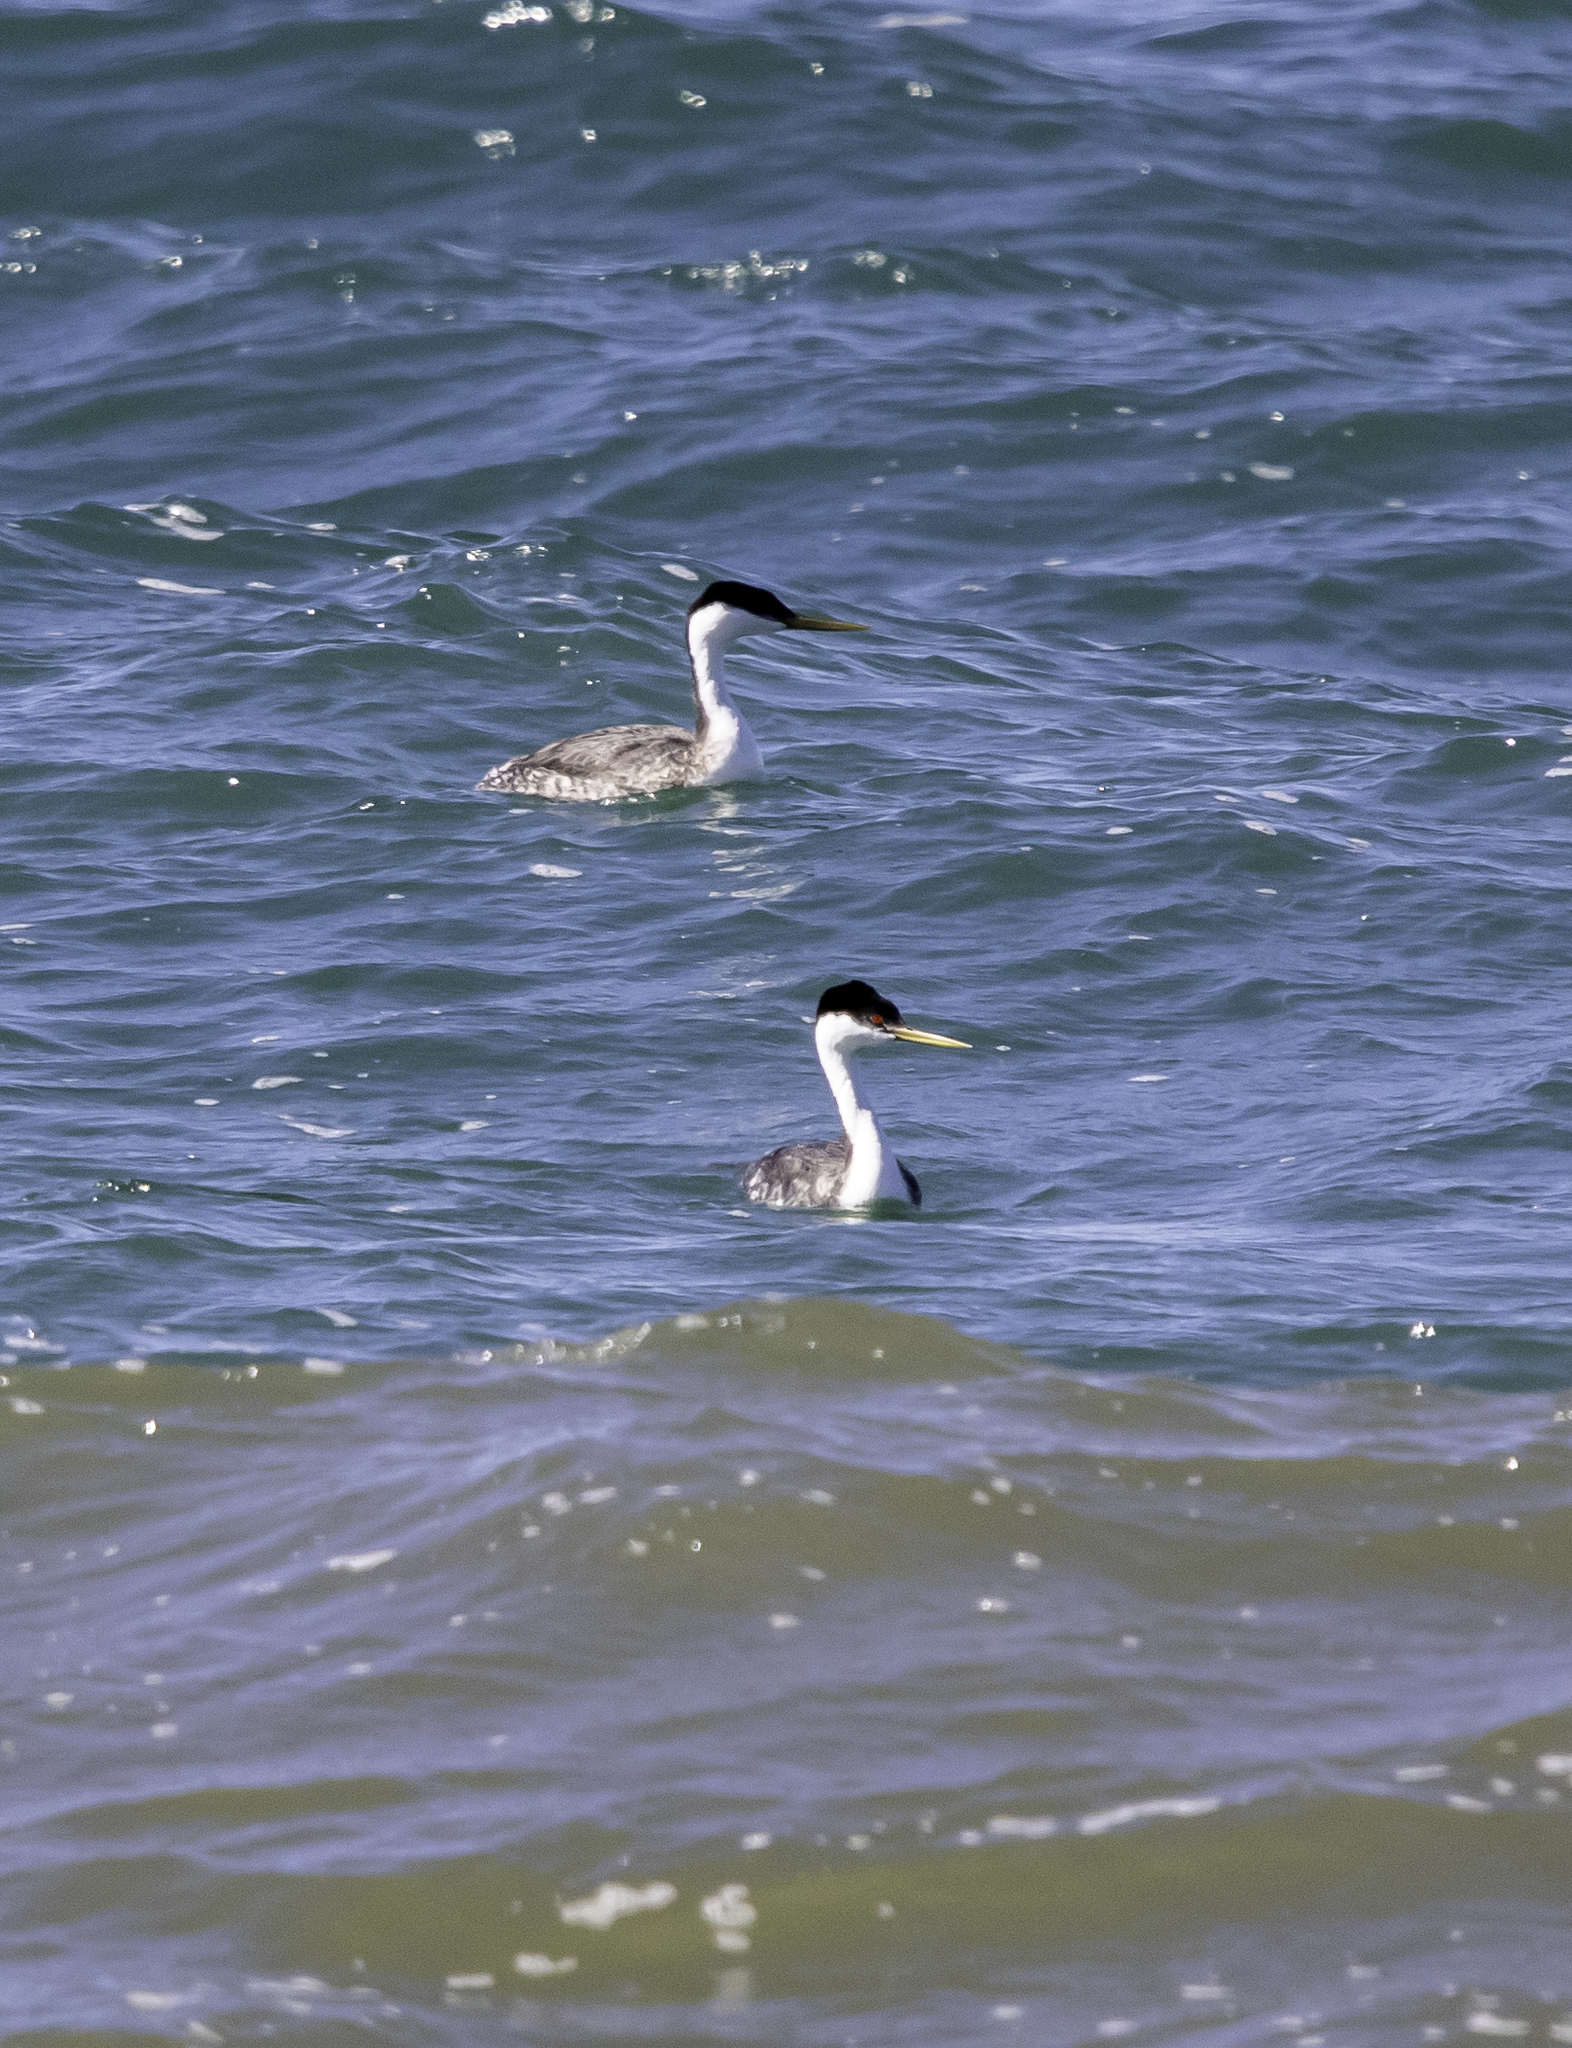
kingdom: Animalia
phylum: Chordata
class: Aves
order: Podicipediformes
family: Podicipedidae
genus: Aechmophorus
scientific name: Aechmophorus occidentalis
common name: Western grebe
